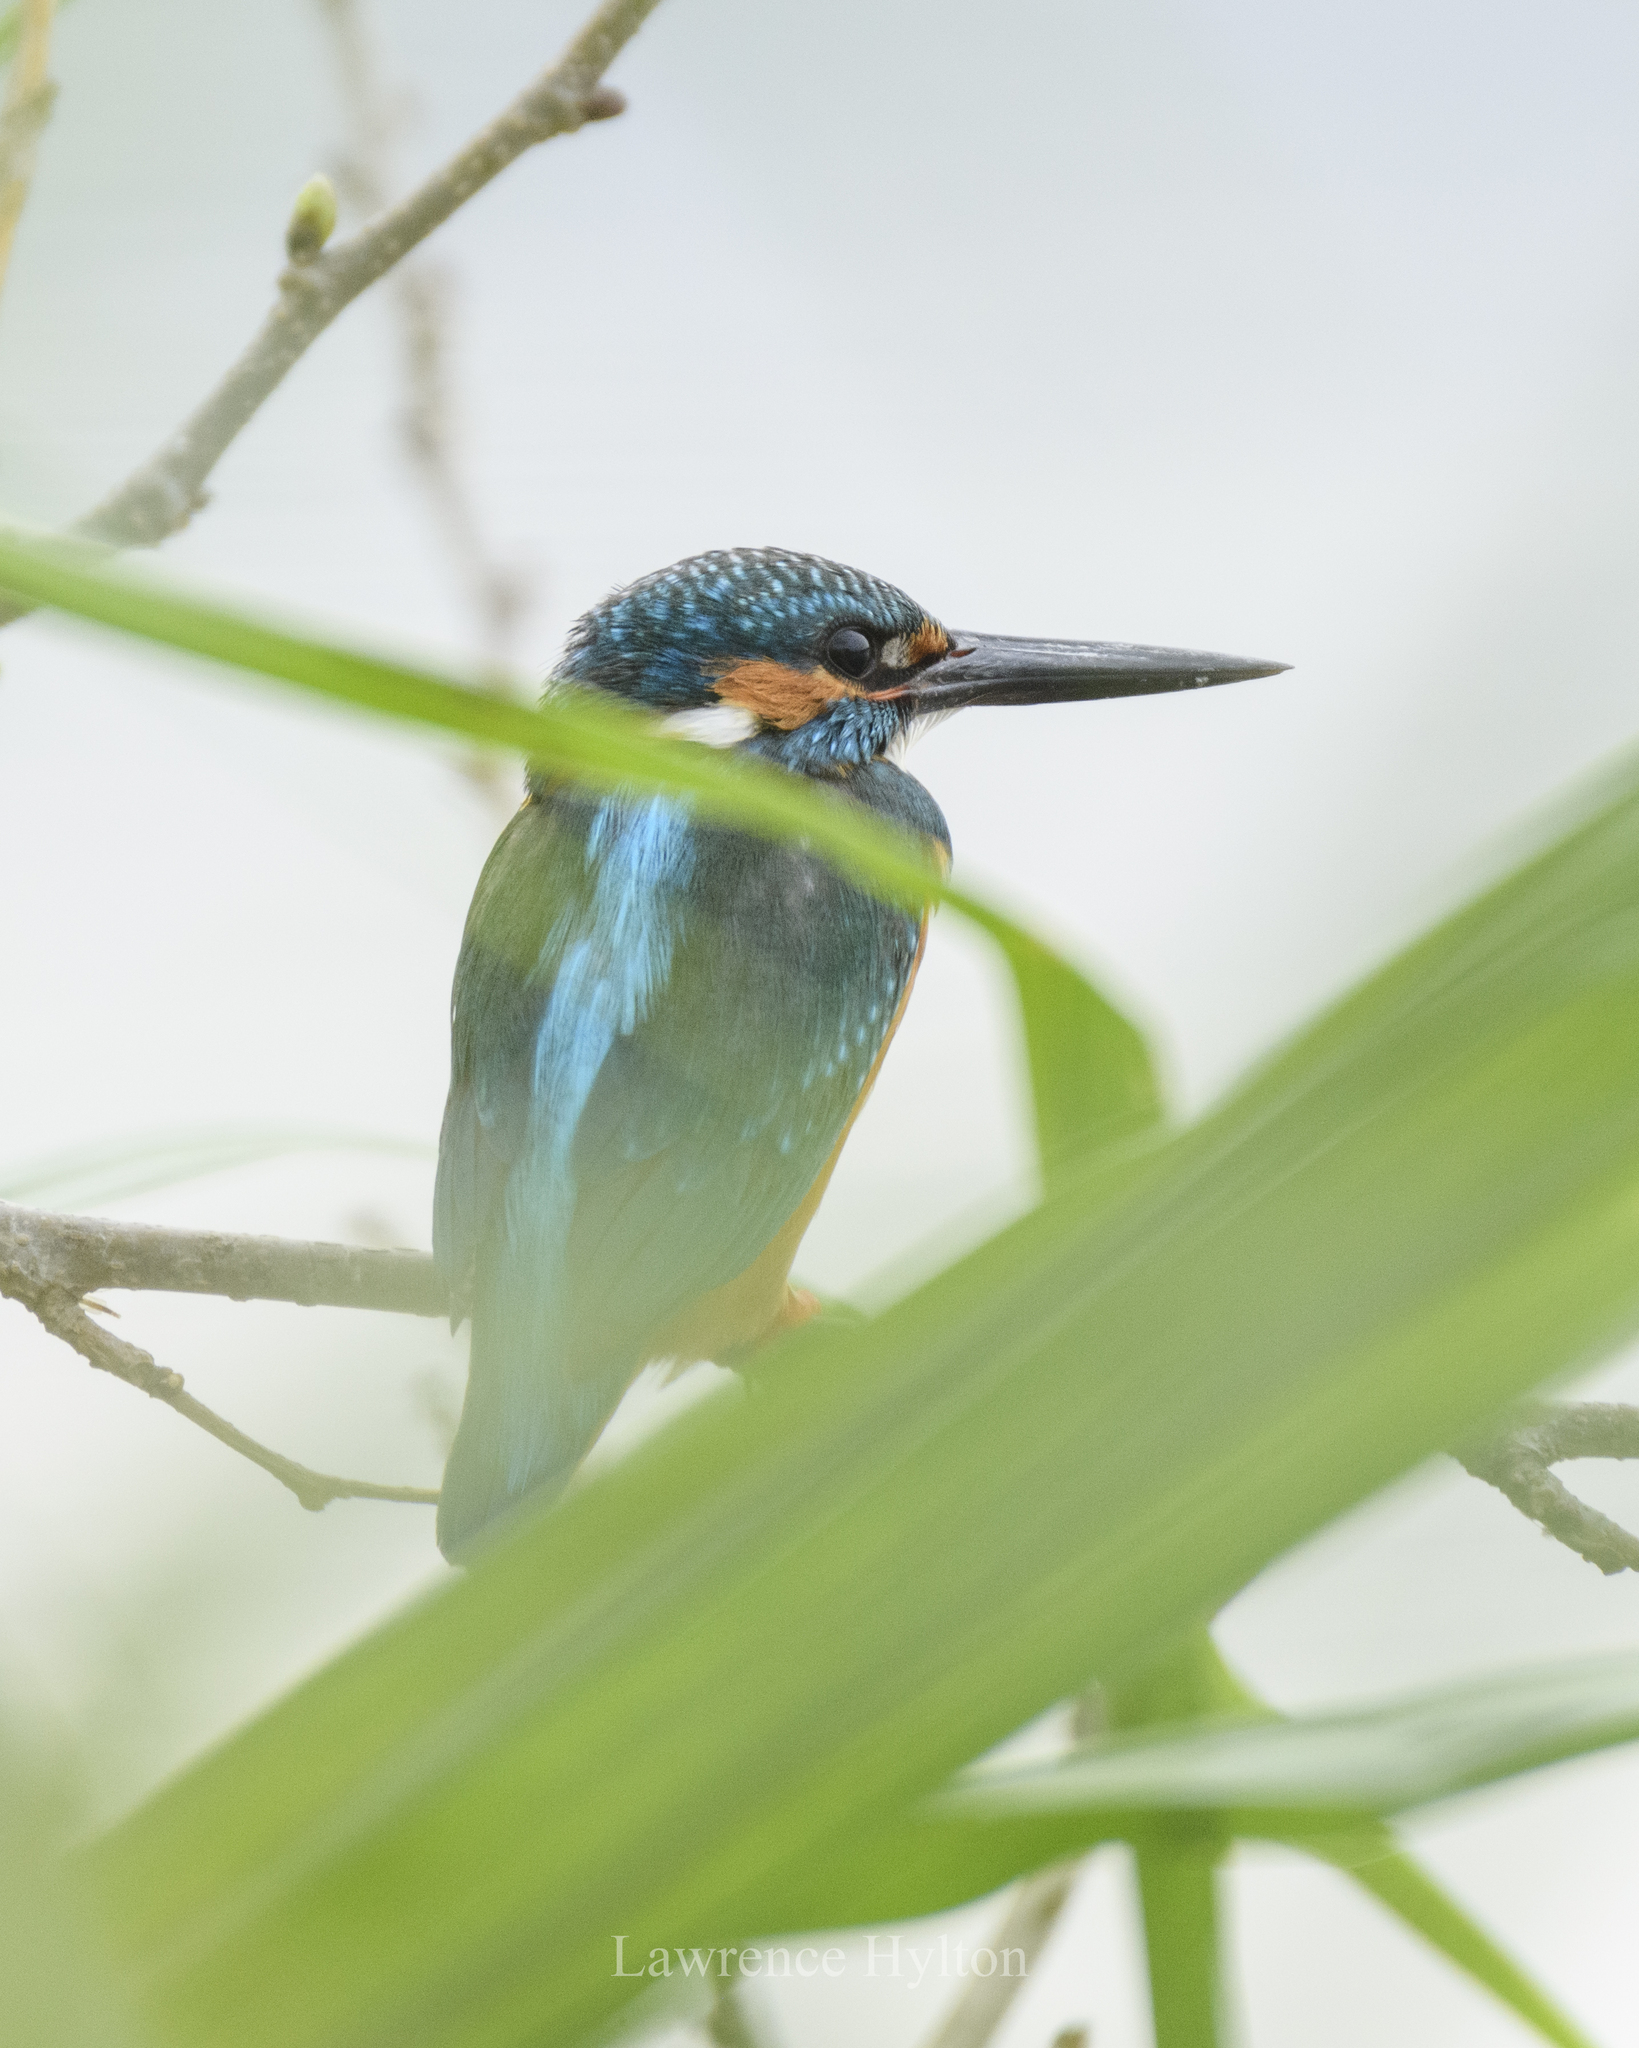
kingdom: Animalia
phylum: Chordata
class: Aves
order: Coraciiformes
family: Alcedinidae
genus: Alcedo
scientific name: Alcedo atthis
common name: Common kingfisher
